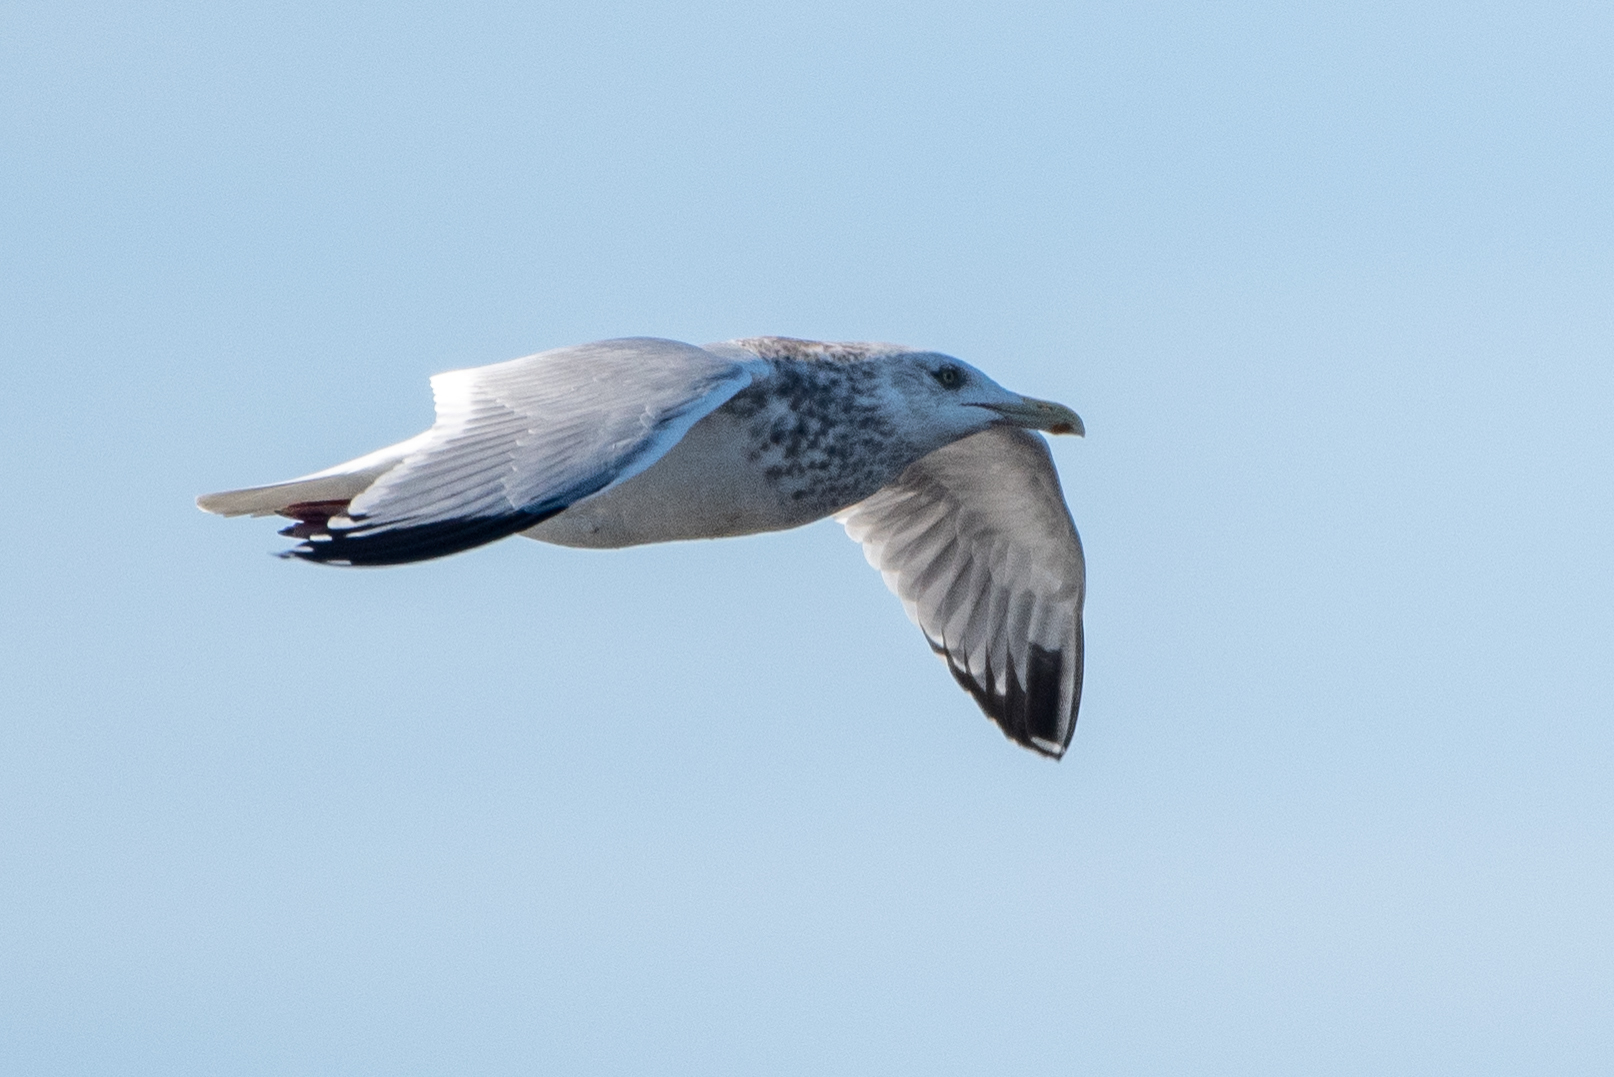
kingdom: Animalia
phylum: Chordata
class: Aves
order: Charadriiformes
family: Laridae
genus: Larus
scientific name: Larus argentatus
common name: Herring gull
